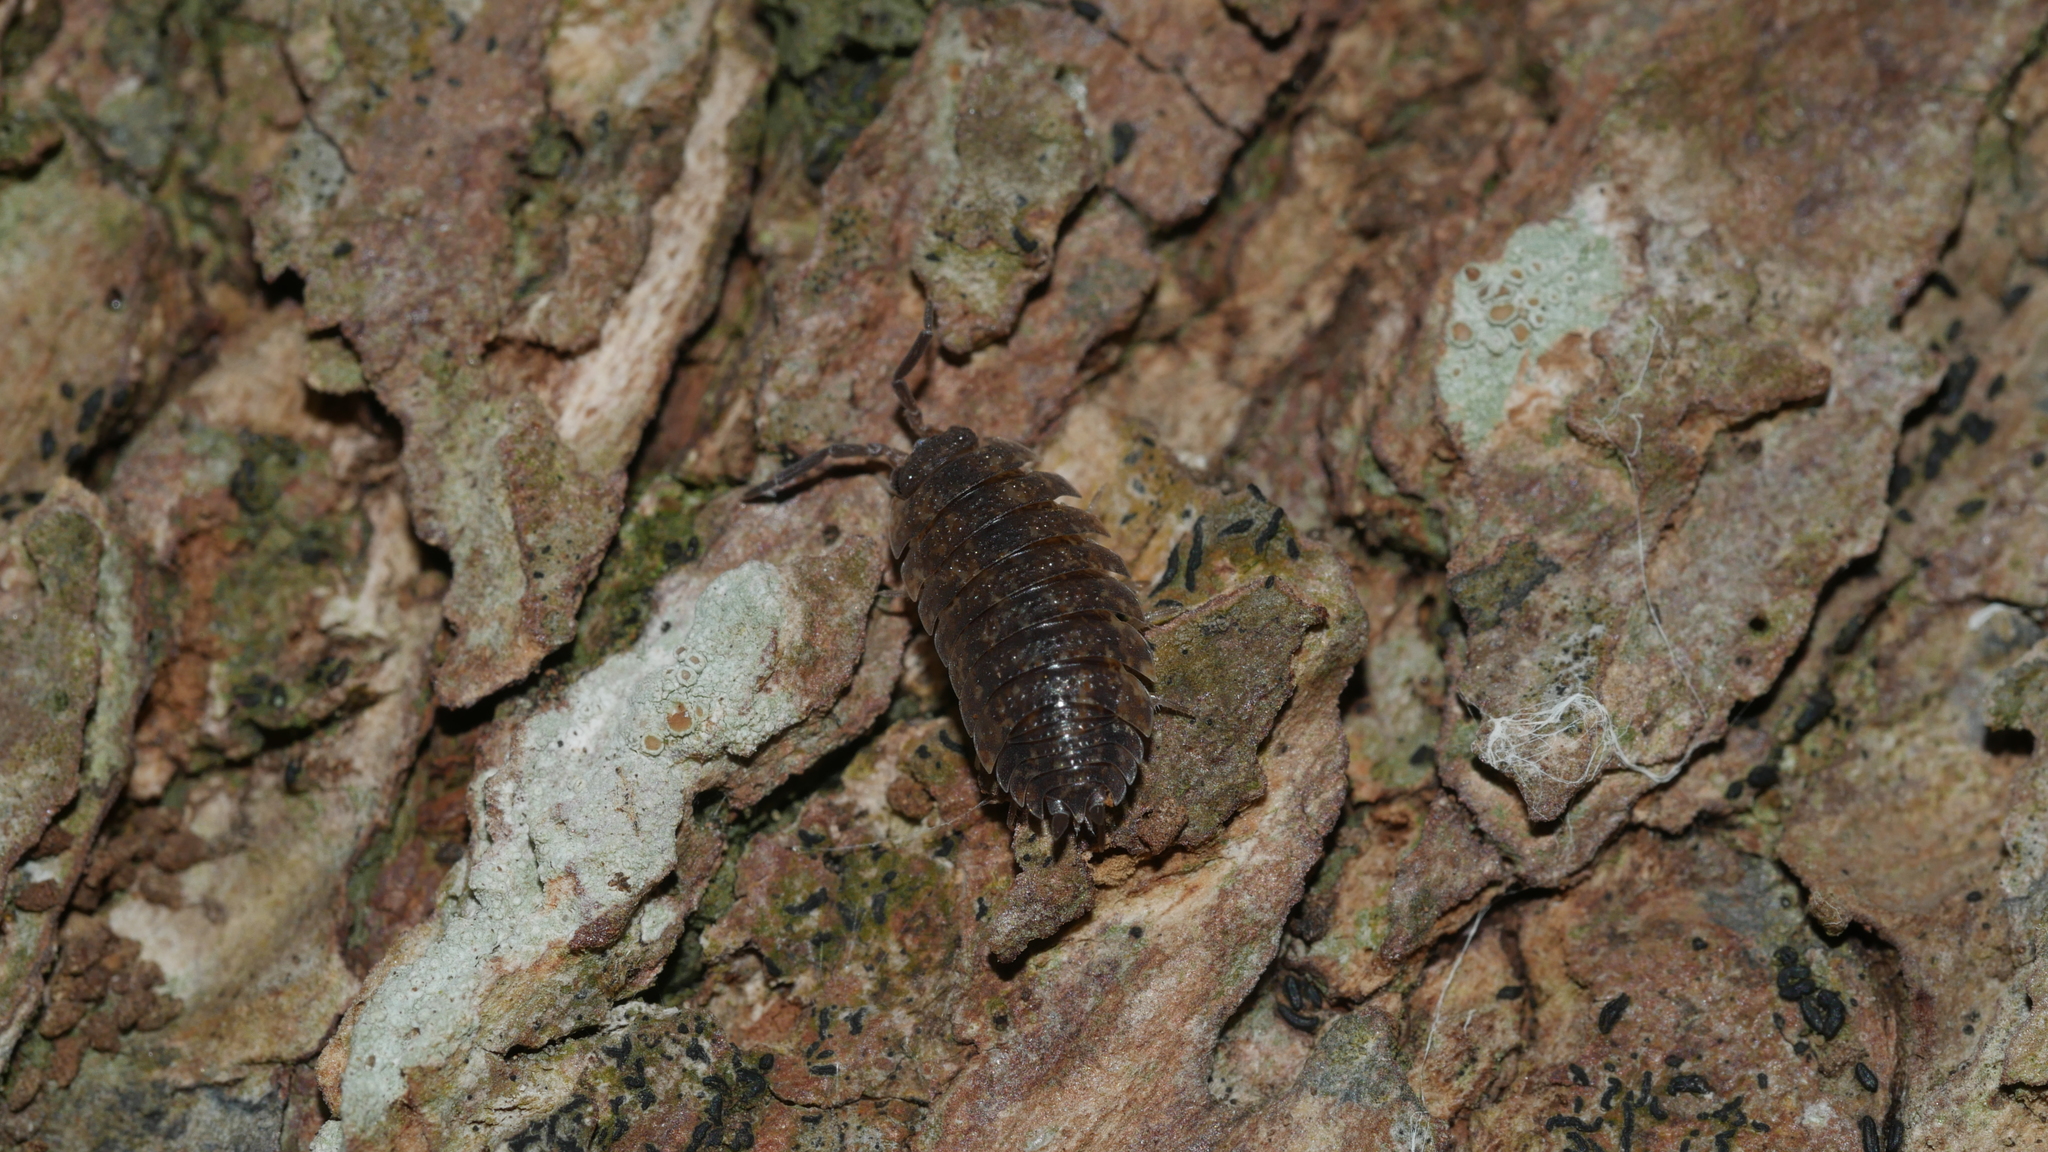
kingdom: Animalia
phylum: Arthropoda
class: Malacostraca
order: Isopoda
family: Porcellionidae
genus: Porcellio
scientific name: Porcellio scaber
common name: Common rough woodlouse
